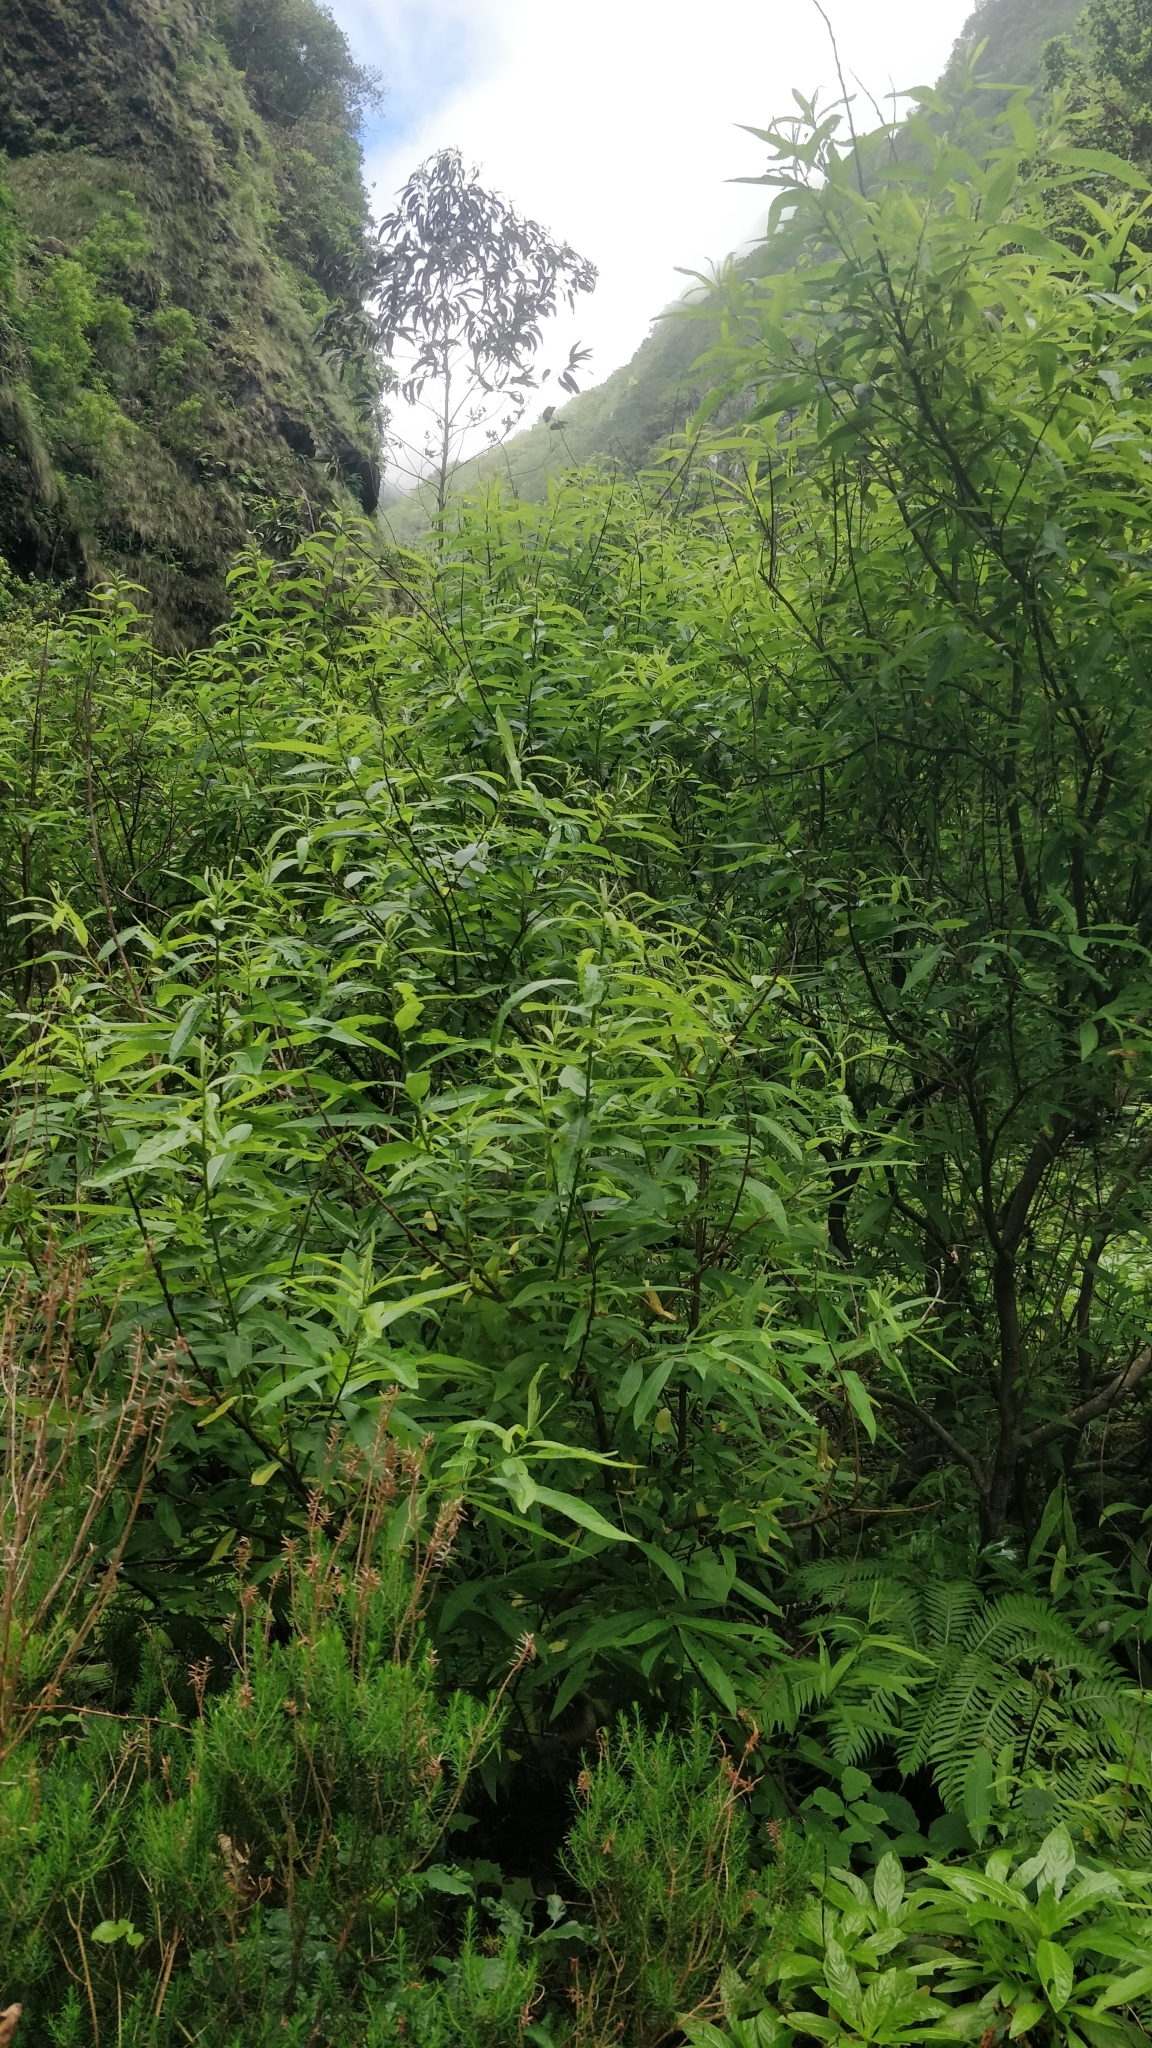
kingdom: Plantae
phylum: Tracheophyta
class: Magnoliopsida
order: Malpighiales
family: Salicaceae
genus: Salix
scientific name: Salix canariensis
